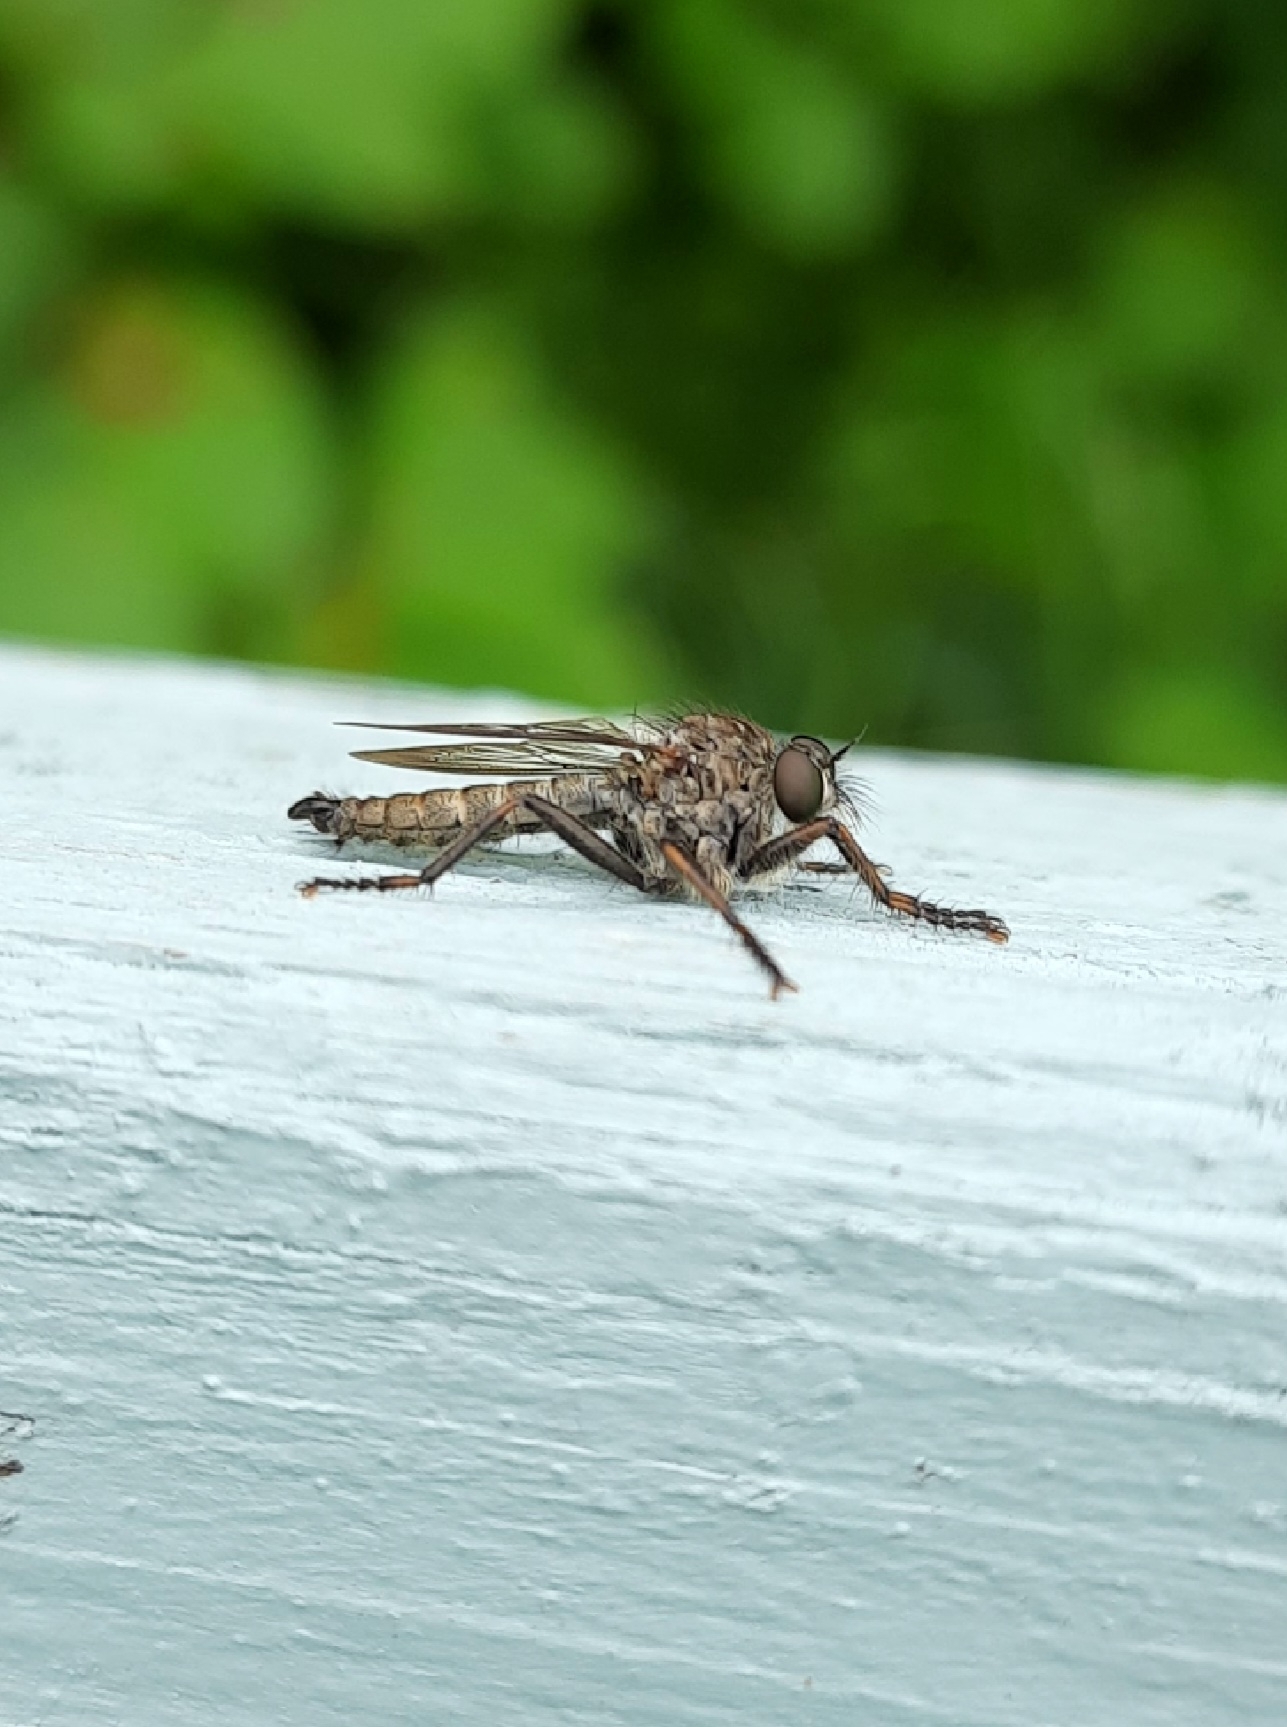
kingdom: Animalia
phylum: Arthropoda
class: Insecta
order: Diptera
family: Asilidae
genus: Machimus
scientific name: Machimus atricapillus
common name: Kite-tailed robberfly
